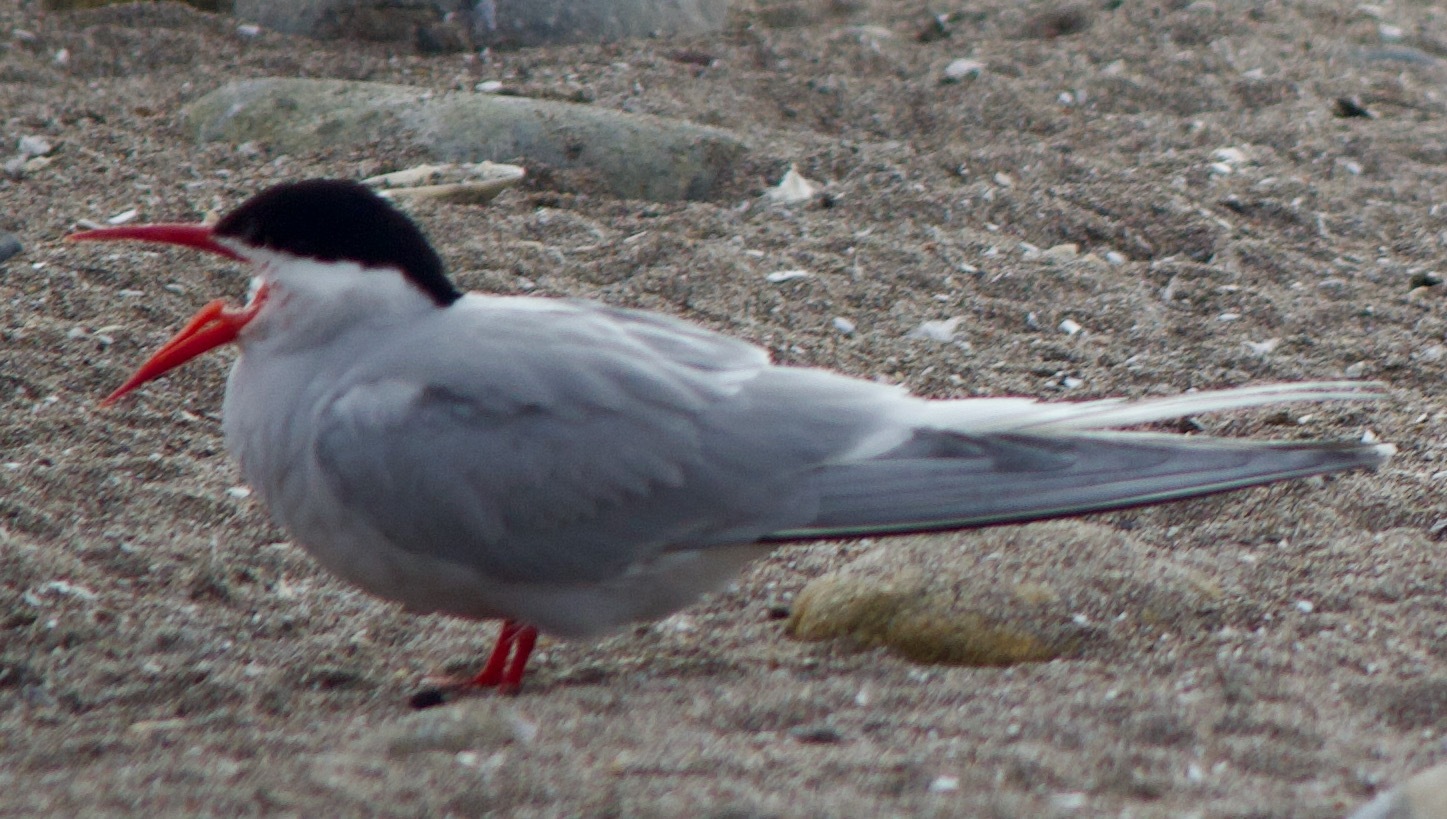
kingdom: Animalia
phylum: Chordata
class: Aves
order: Charadriiformes
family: Laridae
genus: Sterna
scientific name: Sterna hirundinacea
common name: South american tern
